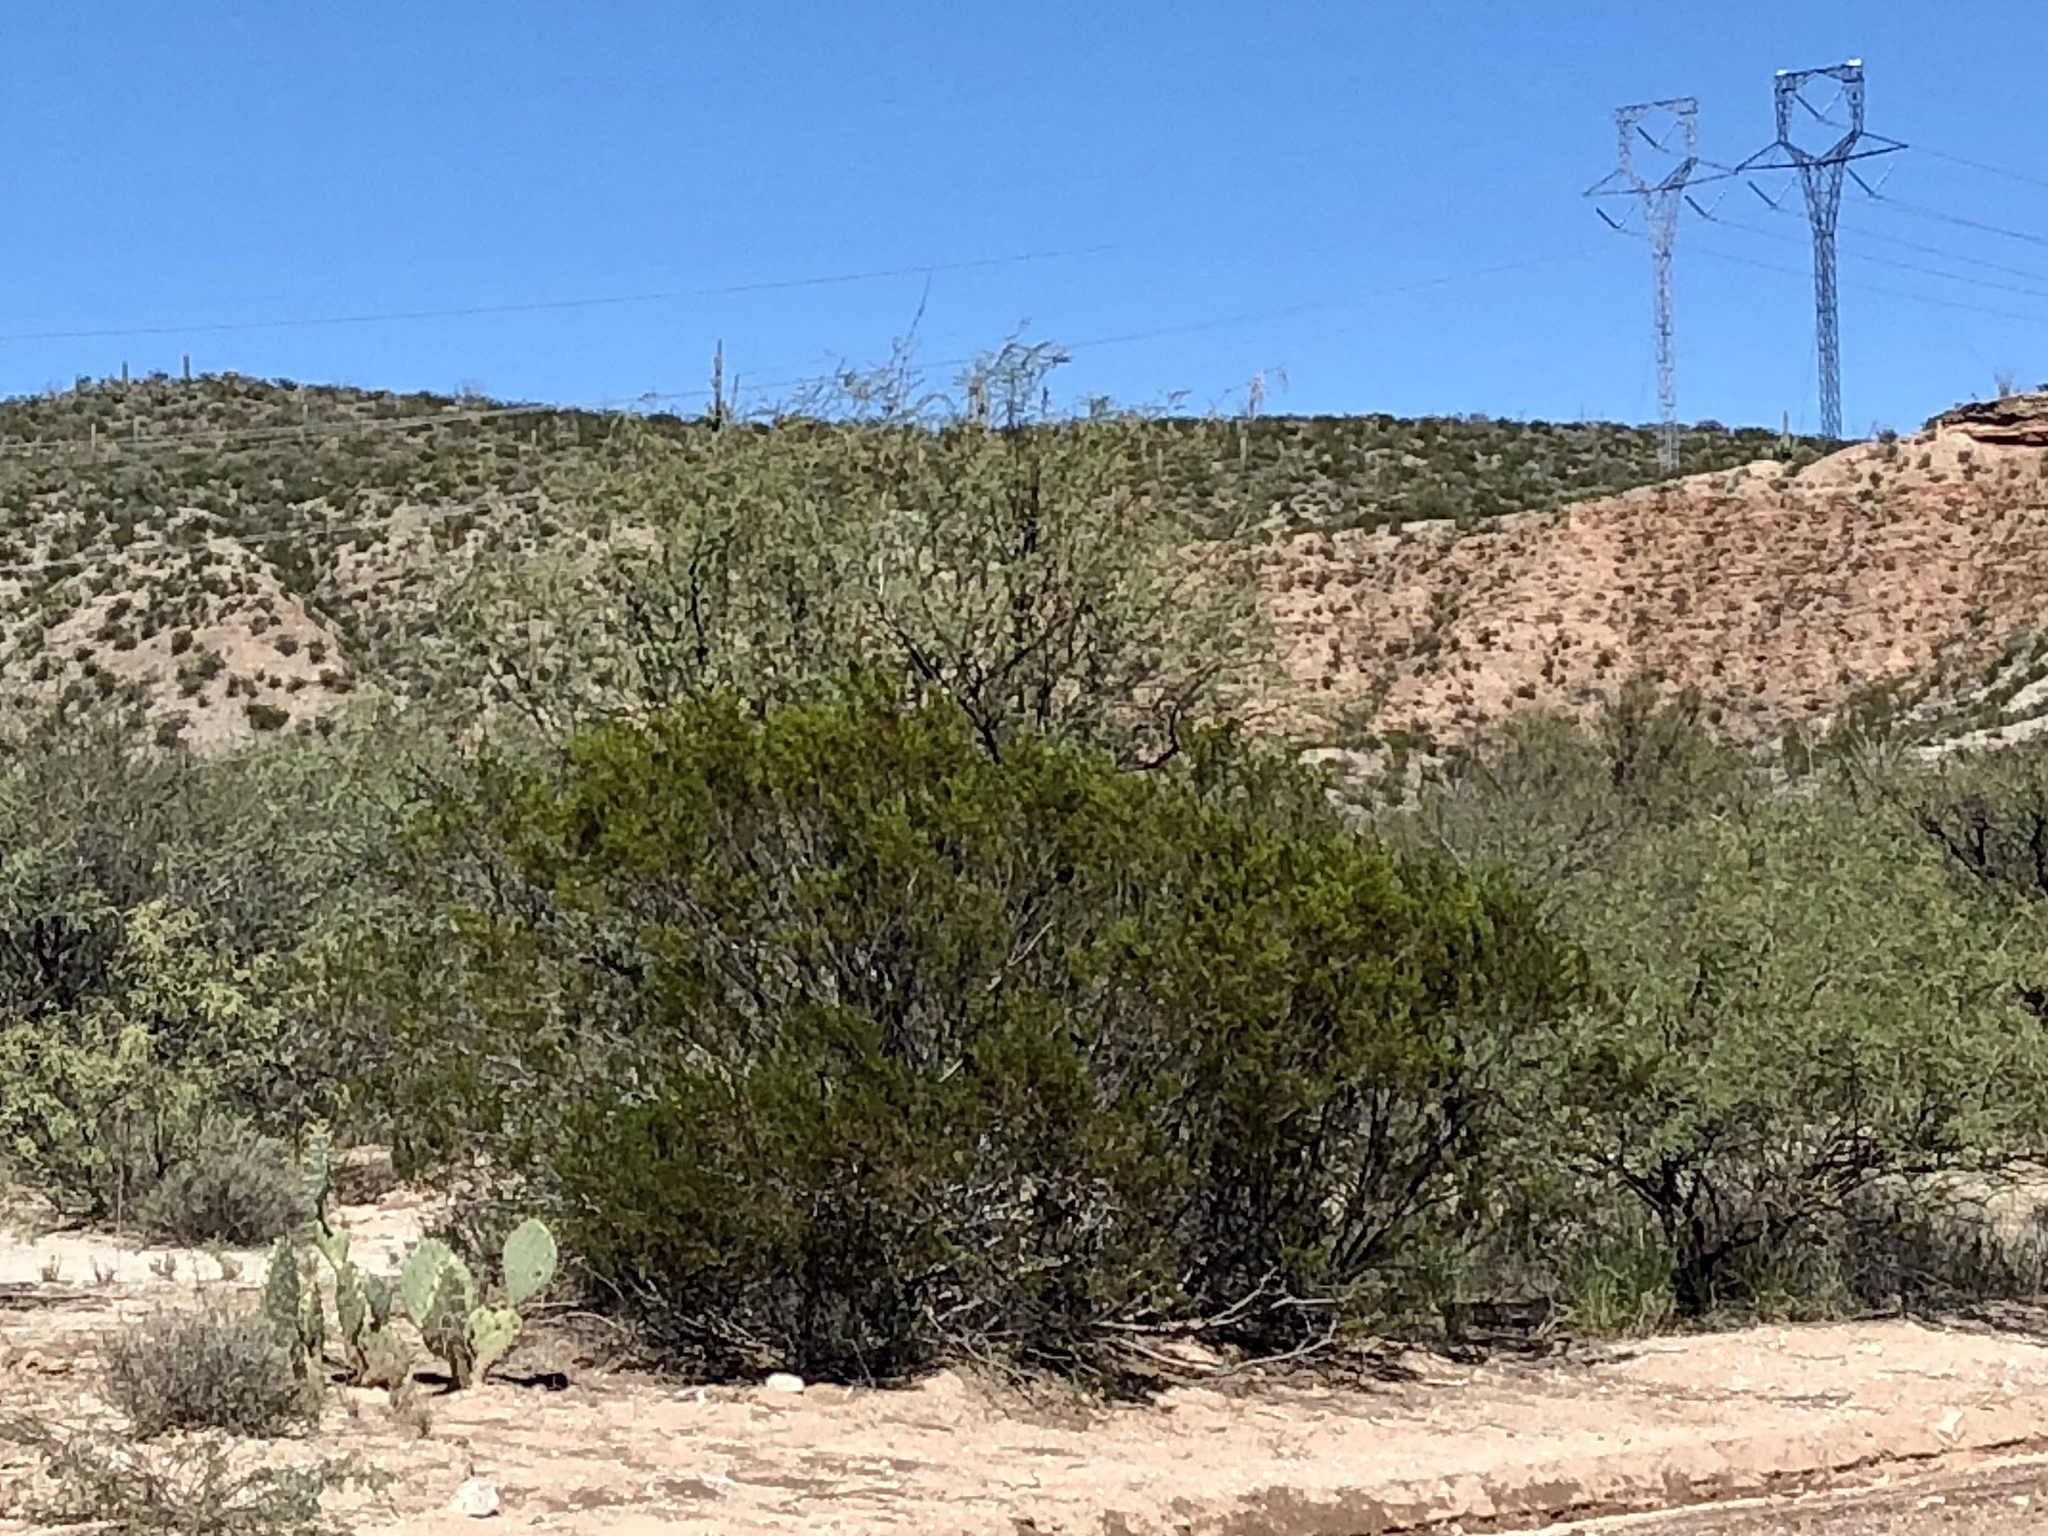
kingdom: Plantae
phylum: Tracheophyta
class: Magnoliopsida
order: Zygophyllales
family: Zygophyllaceae
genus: Larrea
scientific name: Larrea tridentata
